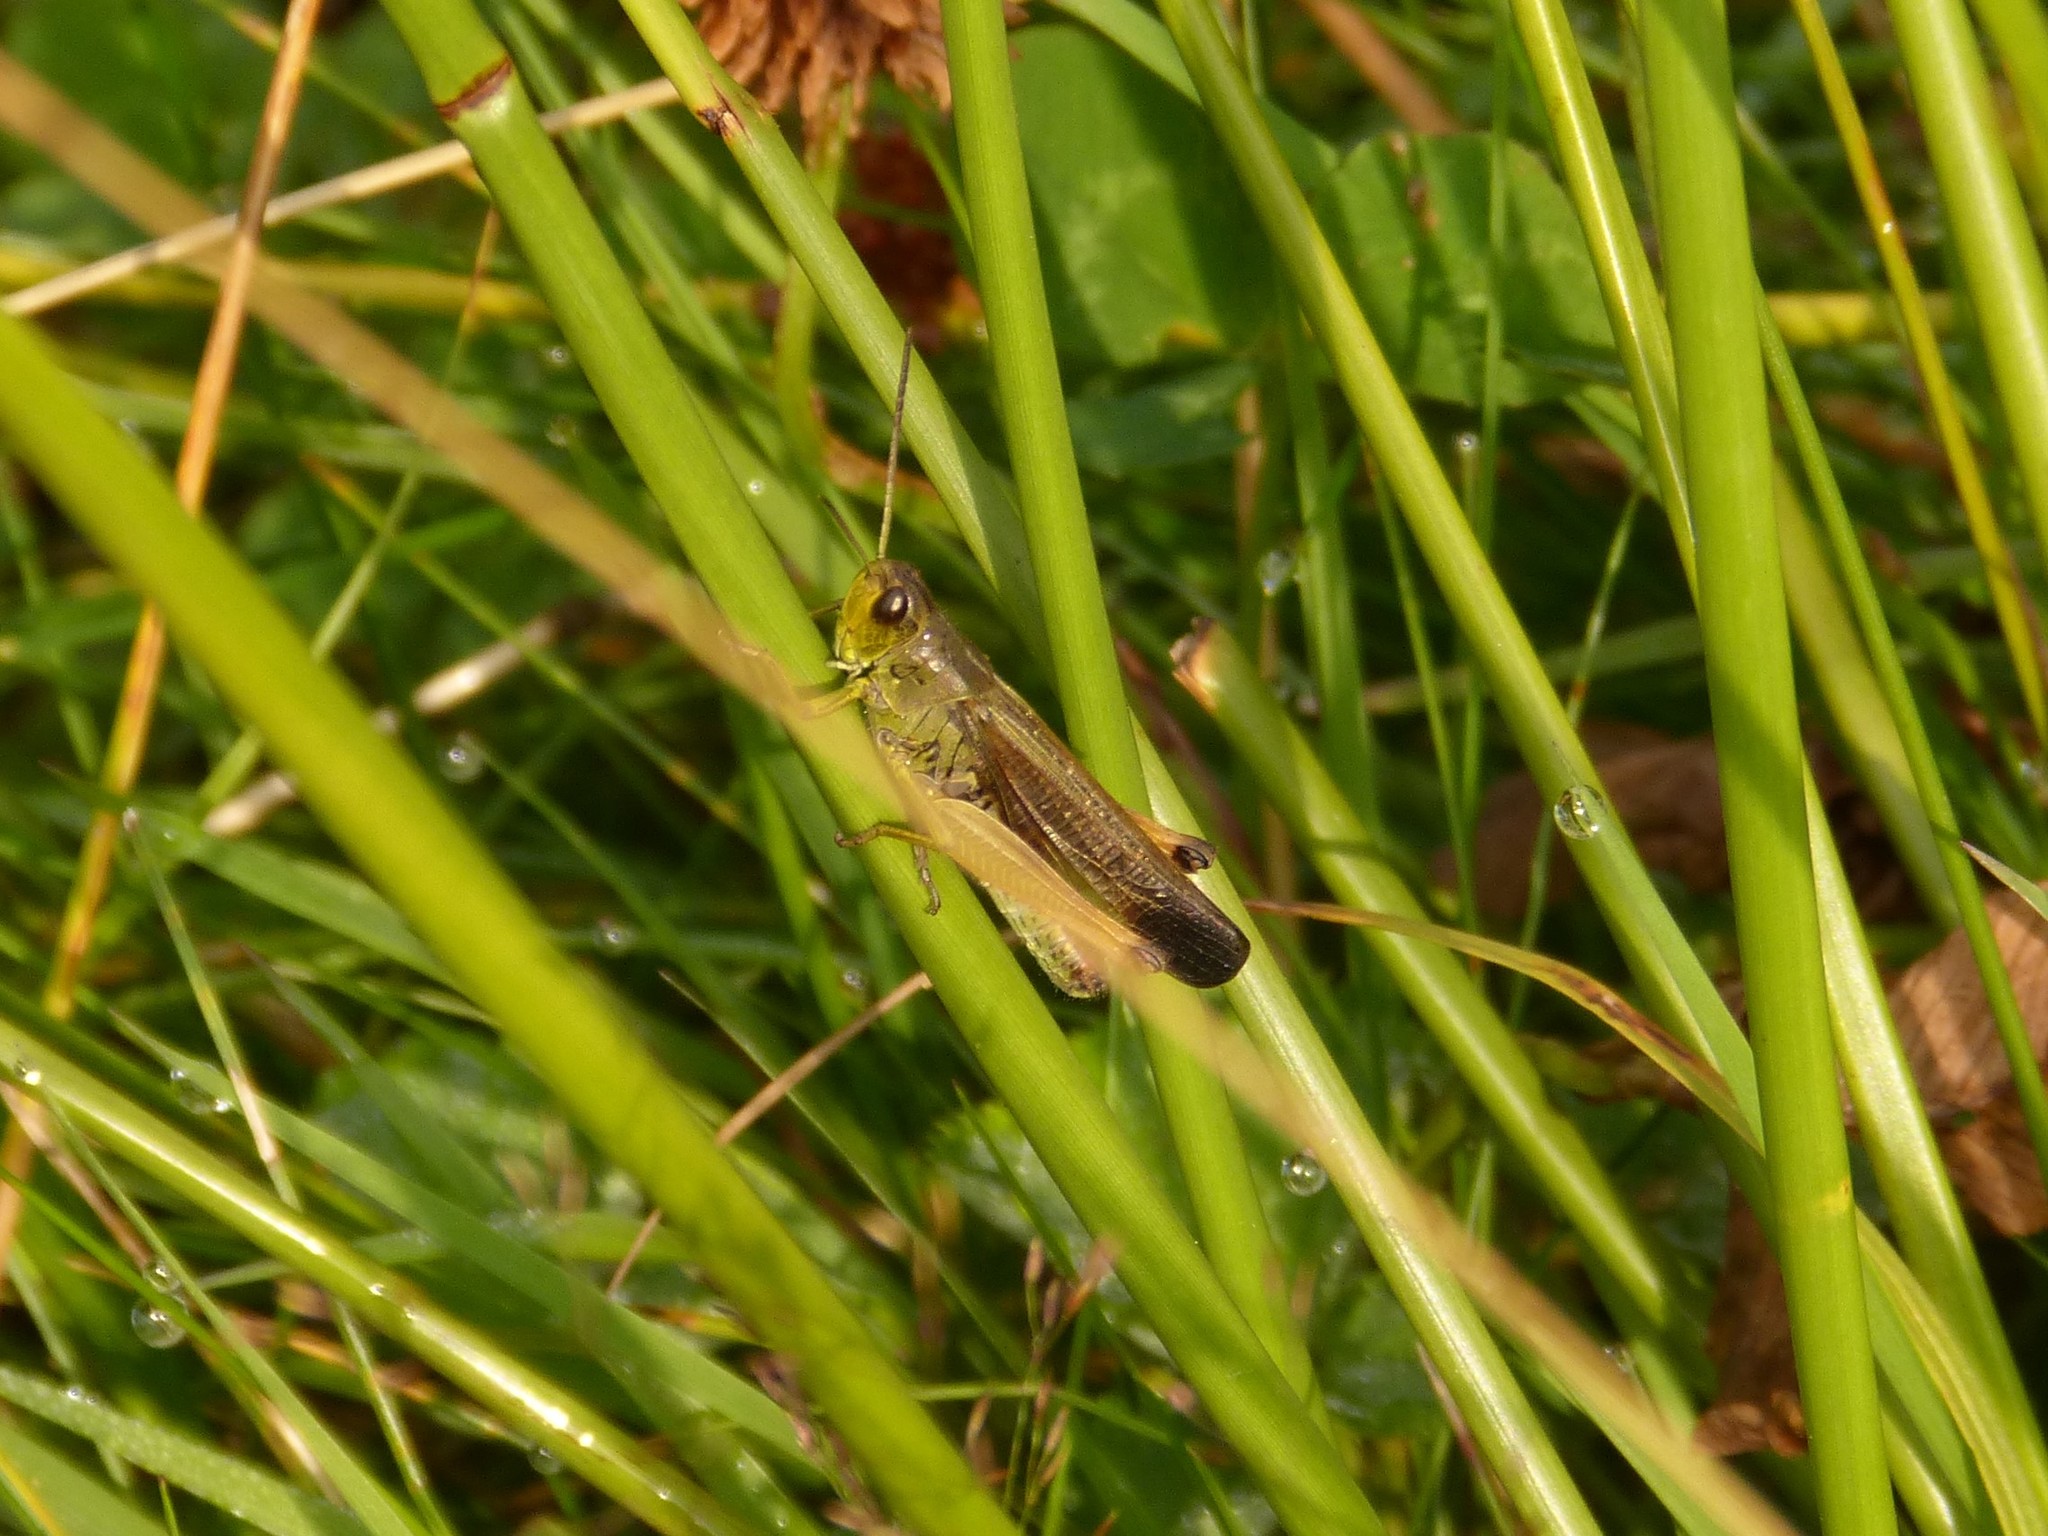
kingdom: Animalia
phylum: Arthropoda
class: Insecta
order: Orthoptera
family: Acrididae
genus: Stauroderus
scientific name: Stauroderus scalaris
